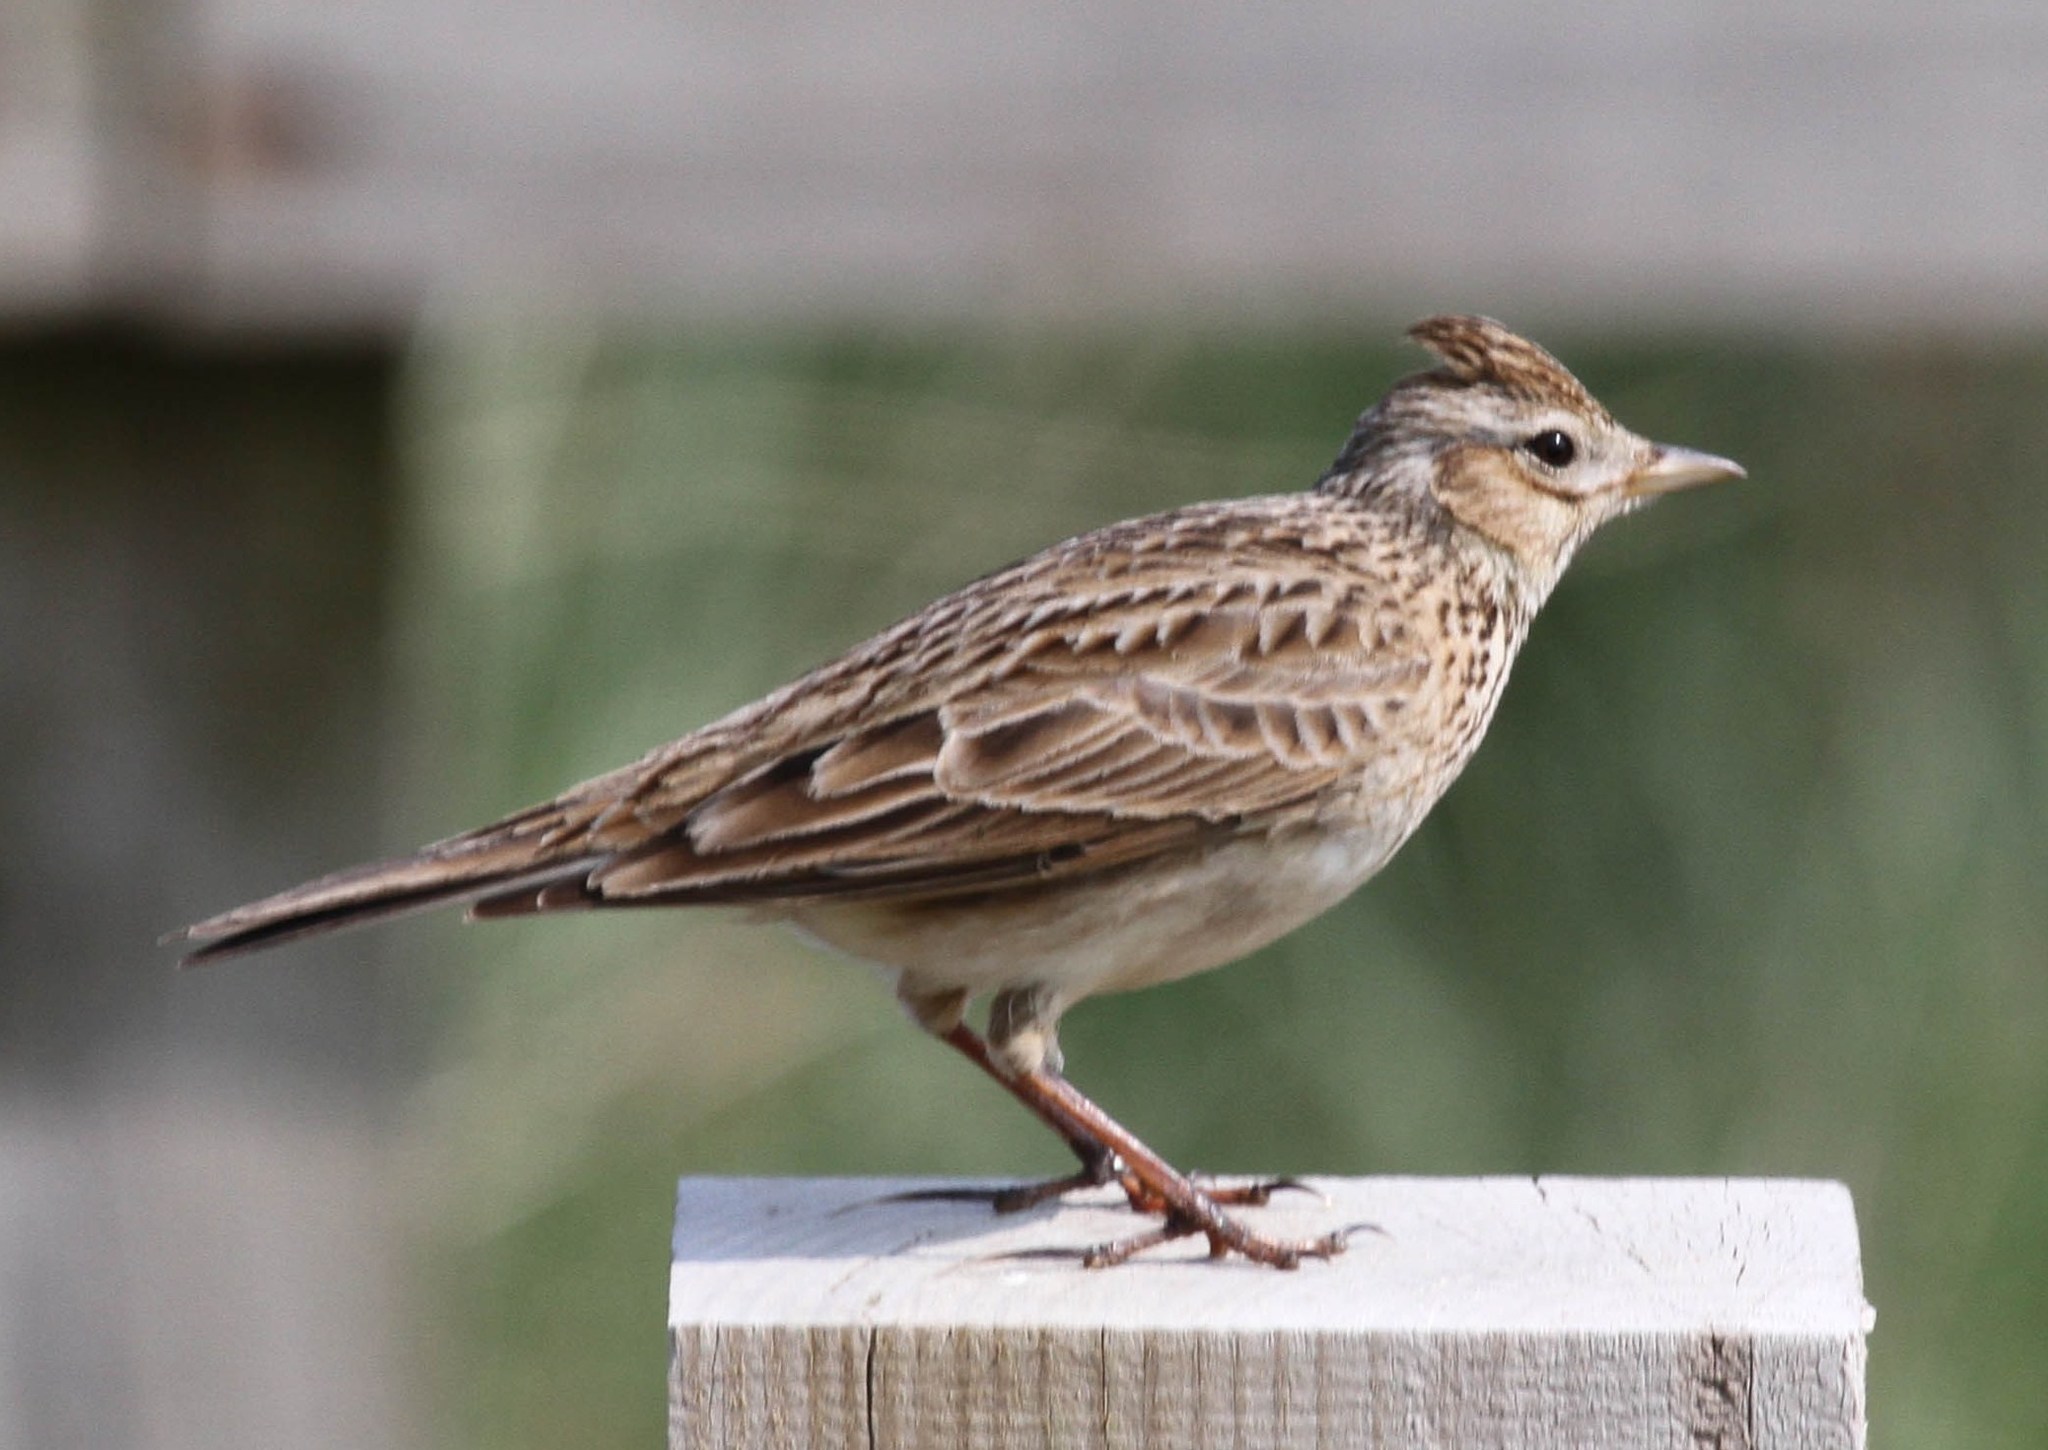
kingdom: Animalia
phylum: Chordata
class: Aves
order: Passeriformes
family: Alaudidae
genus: Alauda
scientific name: Alauda arvensis
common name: Eurasian skylark
